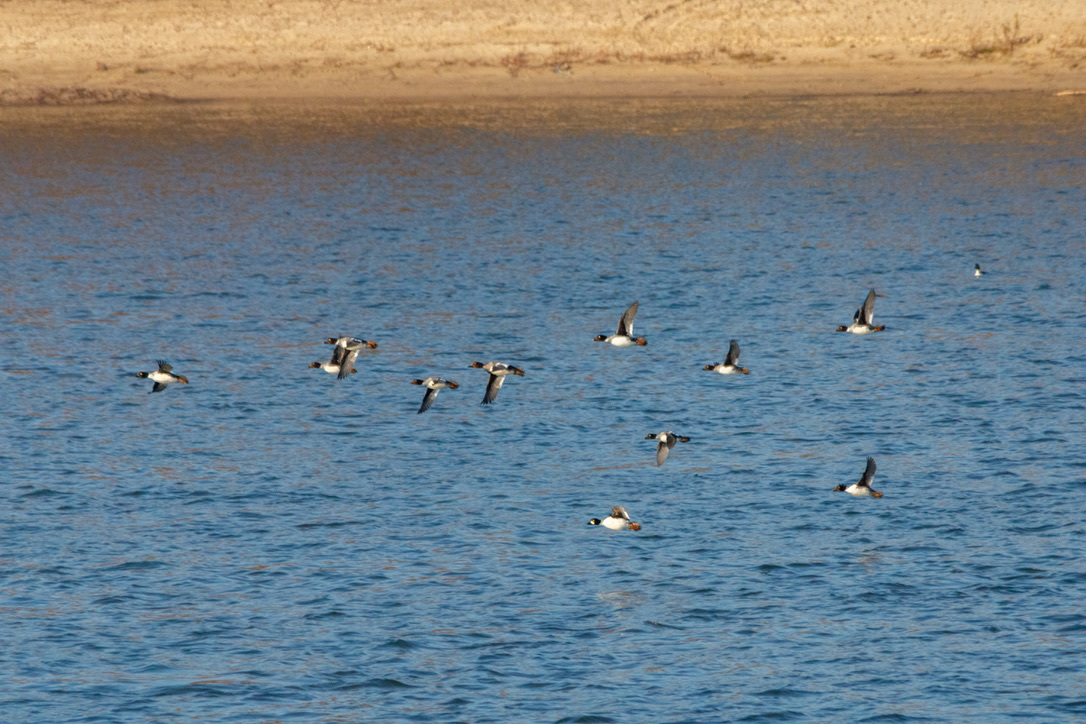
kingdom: Animalia
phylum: Chordata
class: Aves
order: Anseriformes
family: Anatidae
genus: Bucephala
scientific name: Bucephala clangula
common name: Common goldeneye
